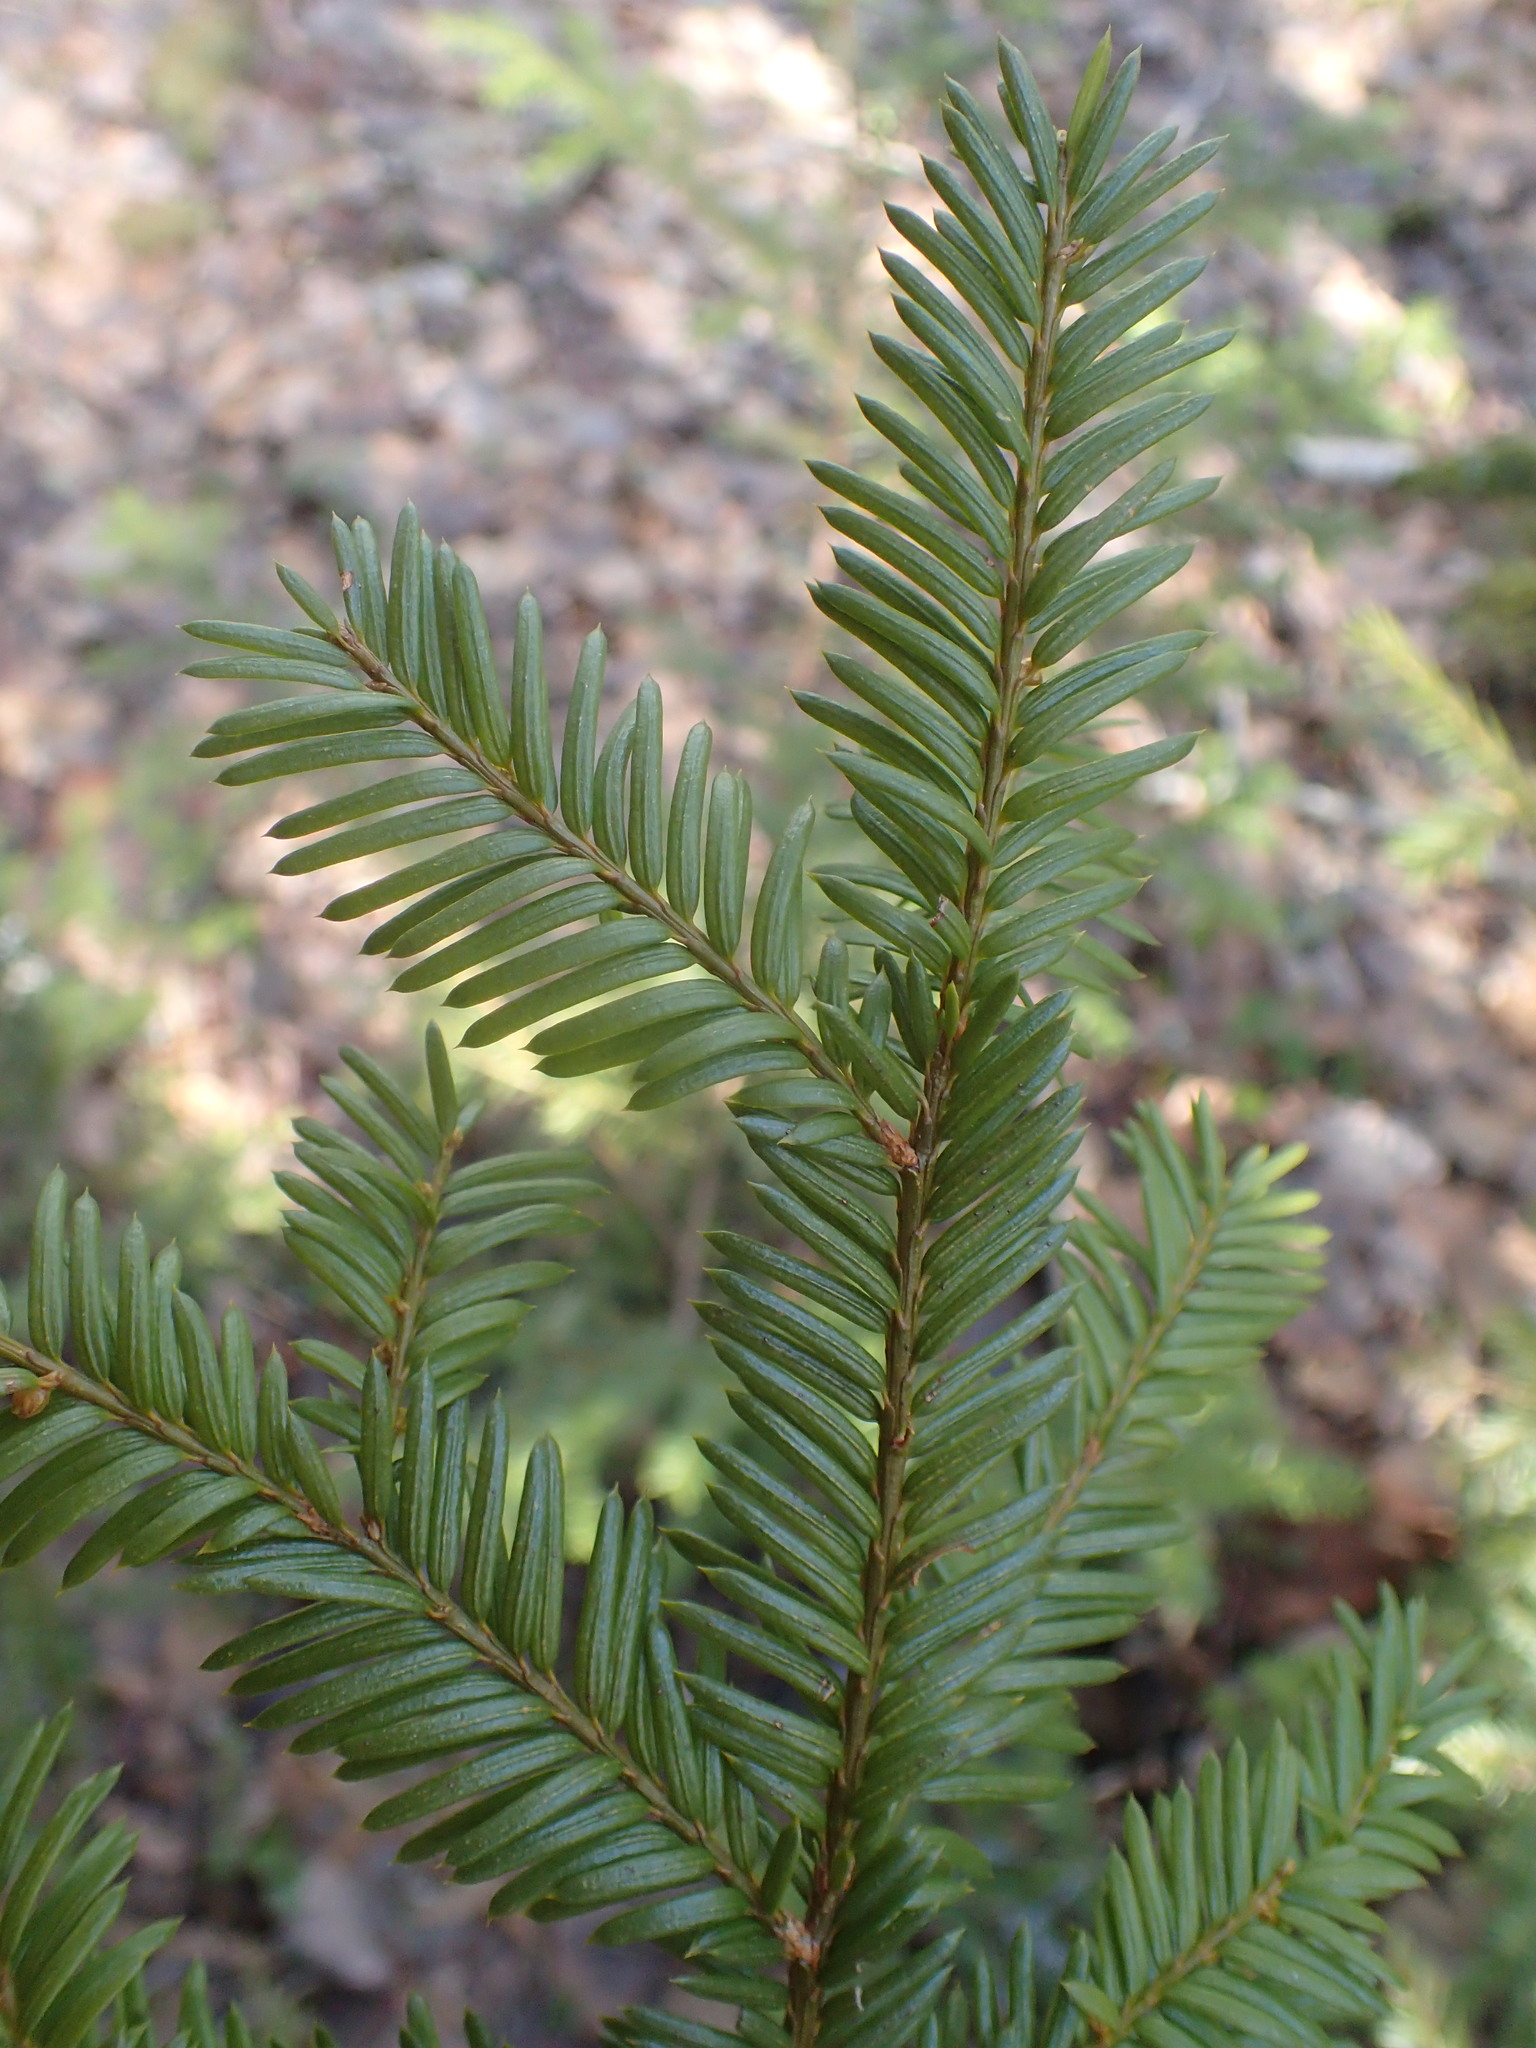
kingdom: Plantae
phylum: Tracheophyta
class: Pinopsida
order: Pinales
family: Taxaceae
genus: Taxus
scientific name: Taxus canadensis
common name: American yew
